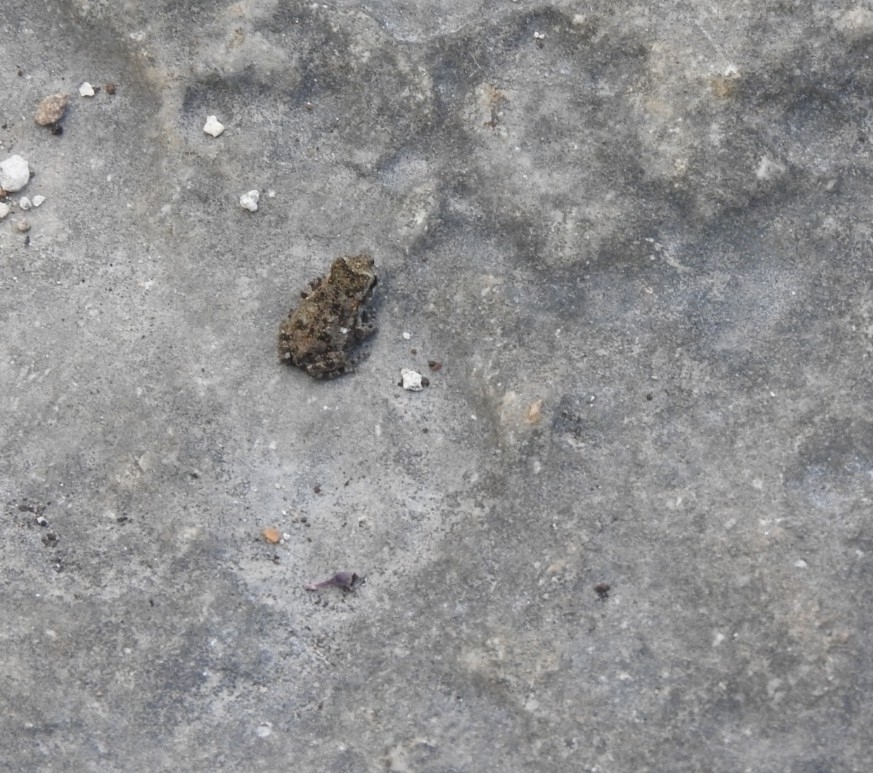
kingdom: Animalia
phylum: Chordata
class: Amphibia
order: Anura
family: Bufonidae
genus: Incilius
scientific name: Incilius valliceps
